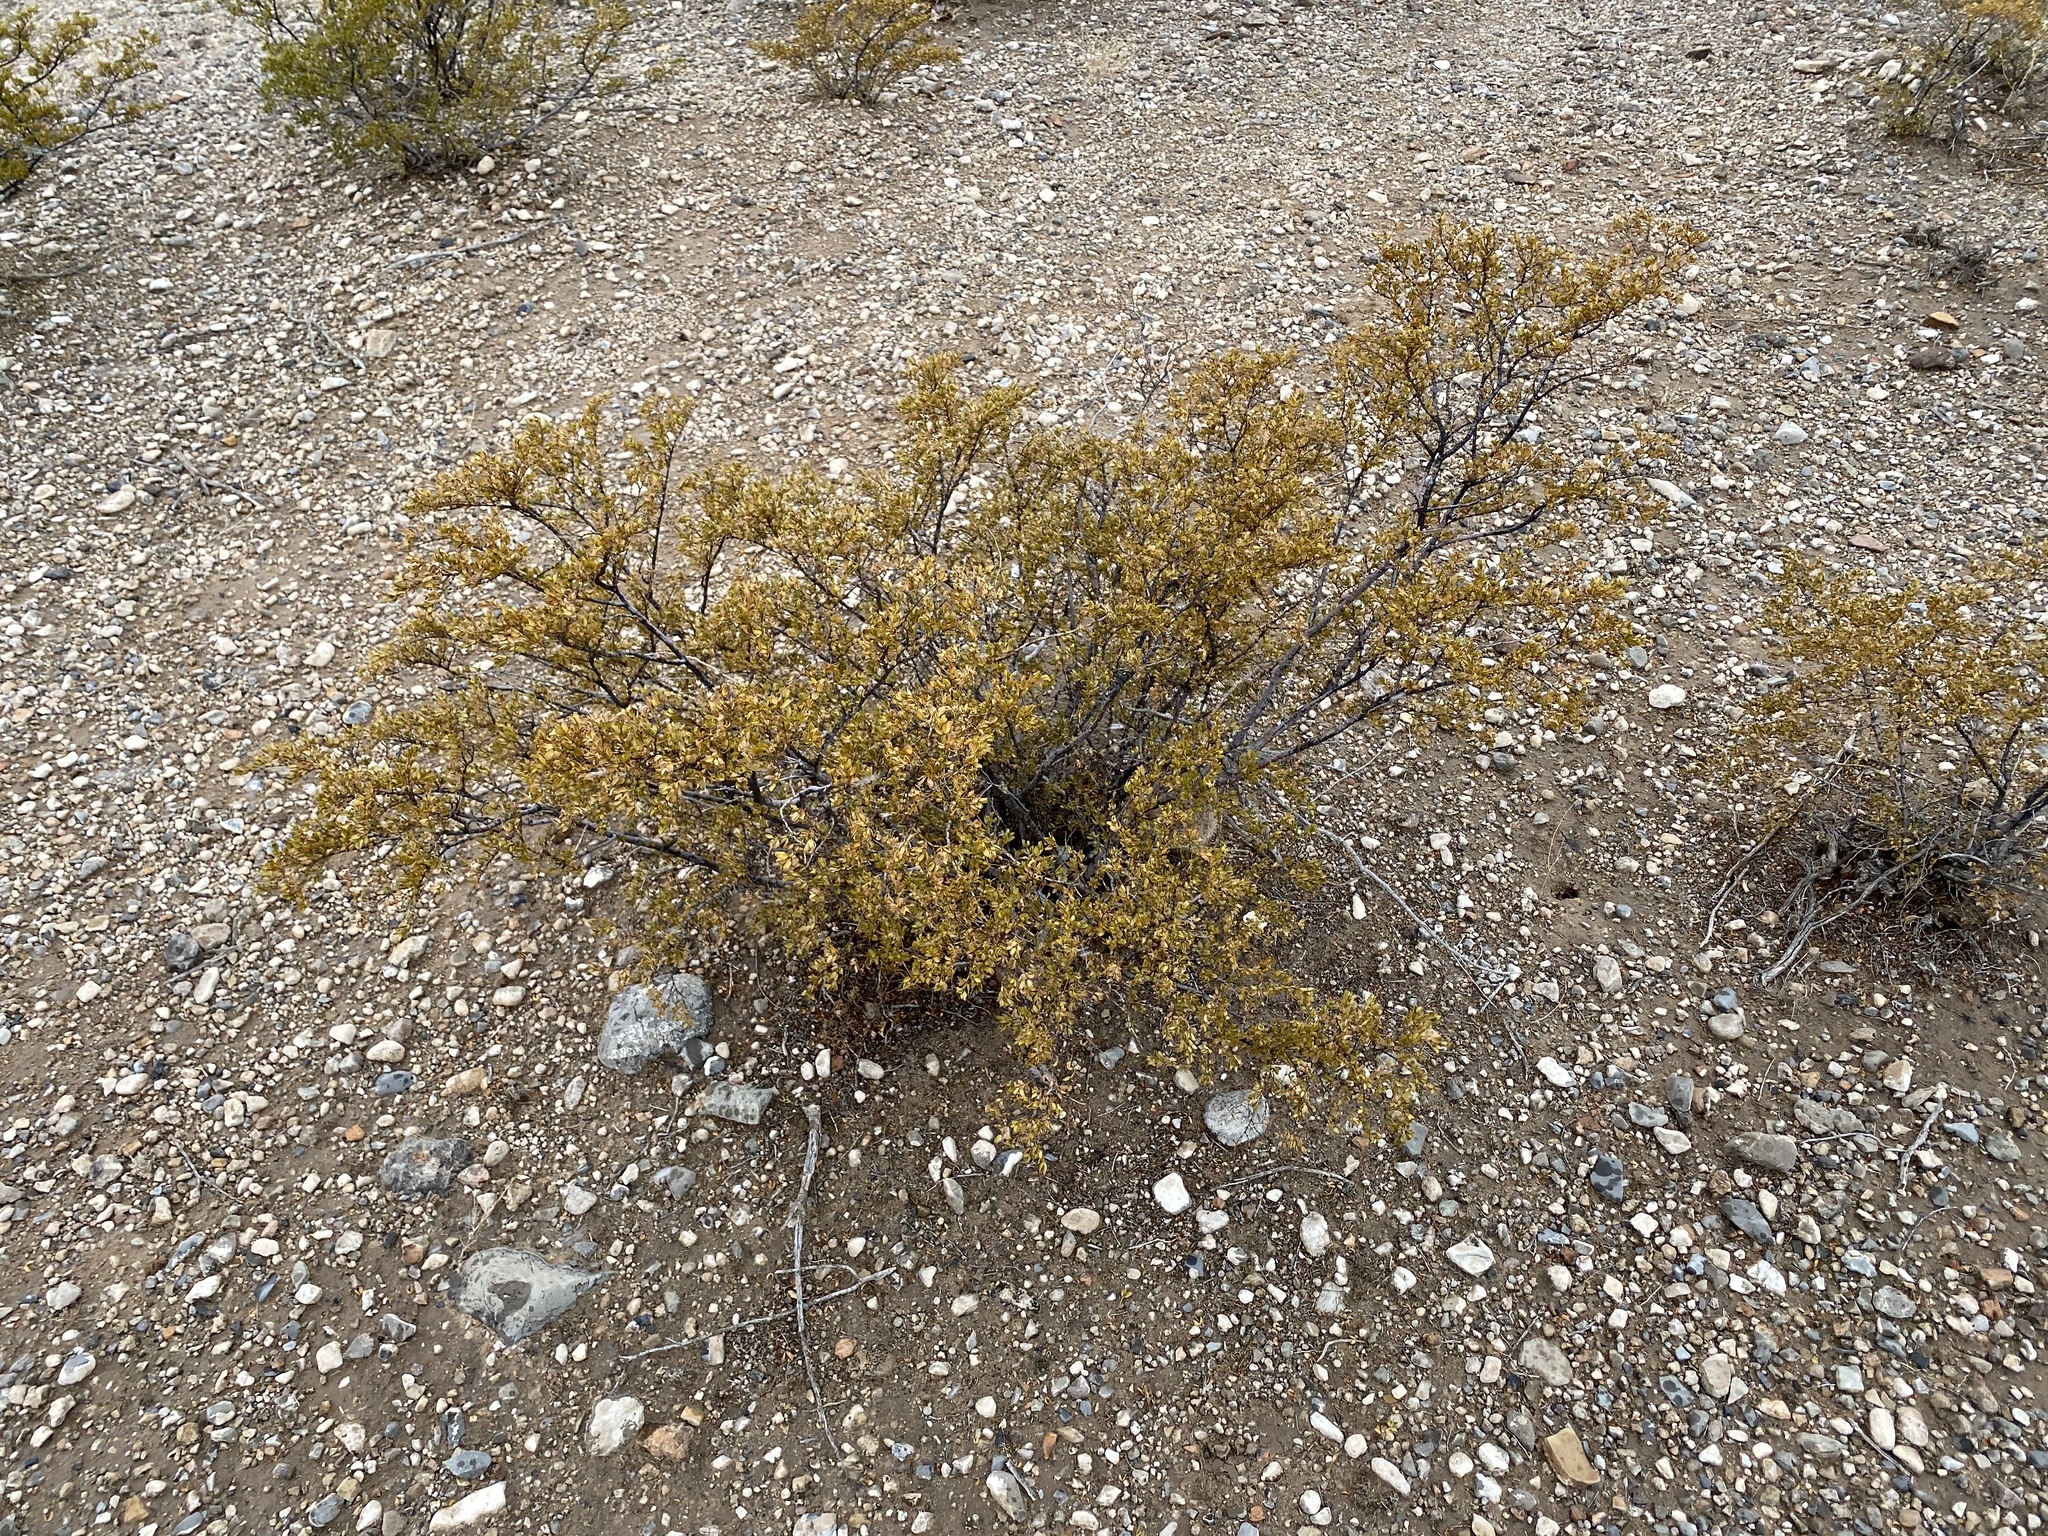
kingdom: Plantae
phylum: Tracheophyta
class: Magnoliopsida
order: Zygophyllales
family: Zygophyllaceae
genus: Larrea
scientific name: Larrea tridentata
